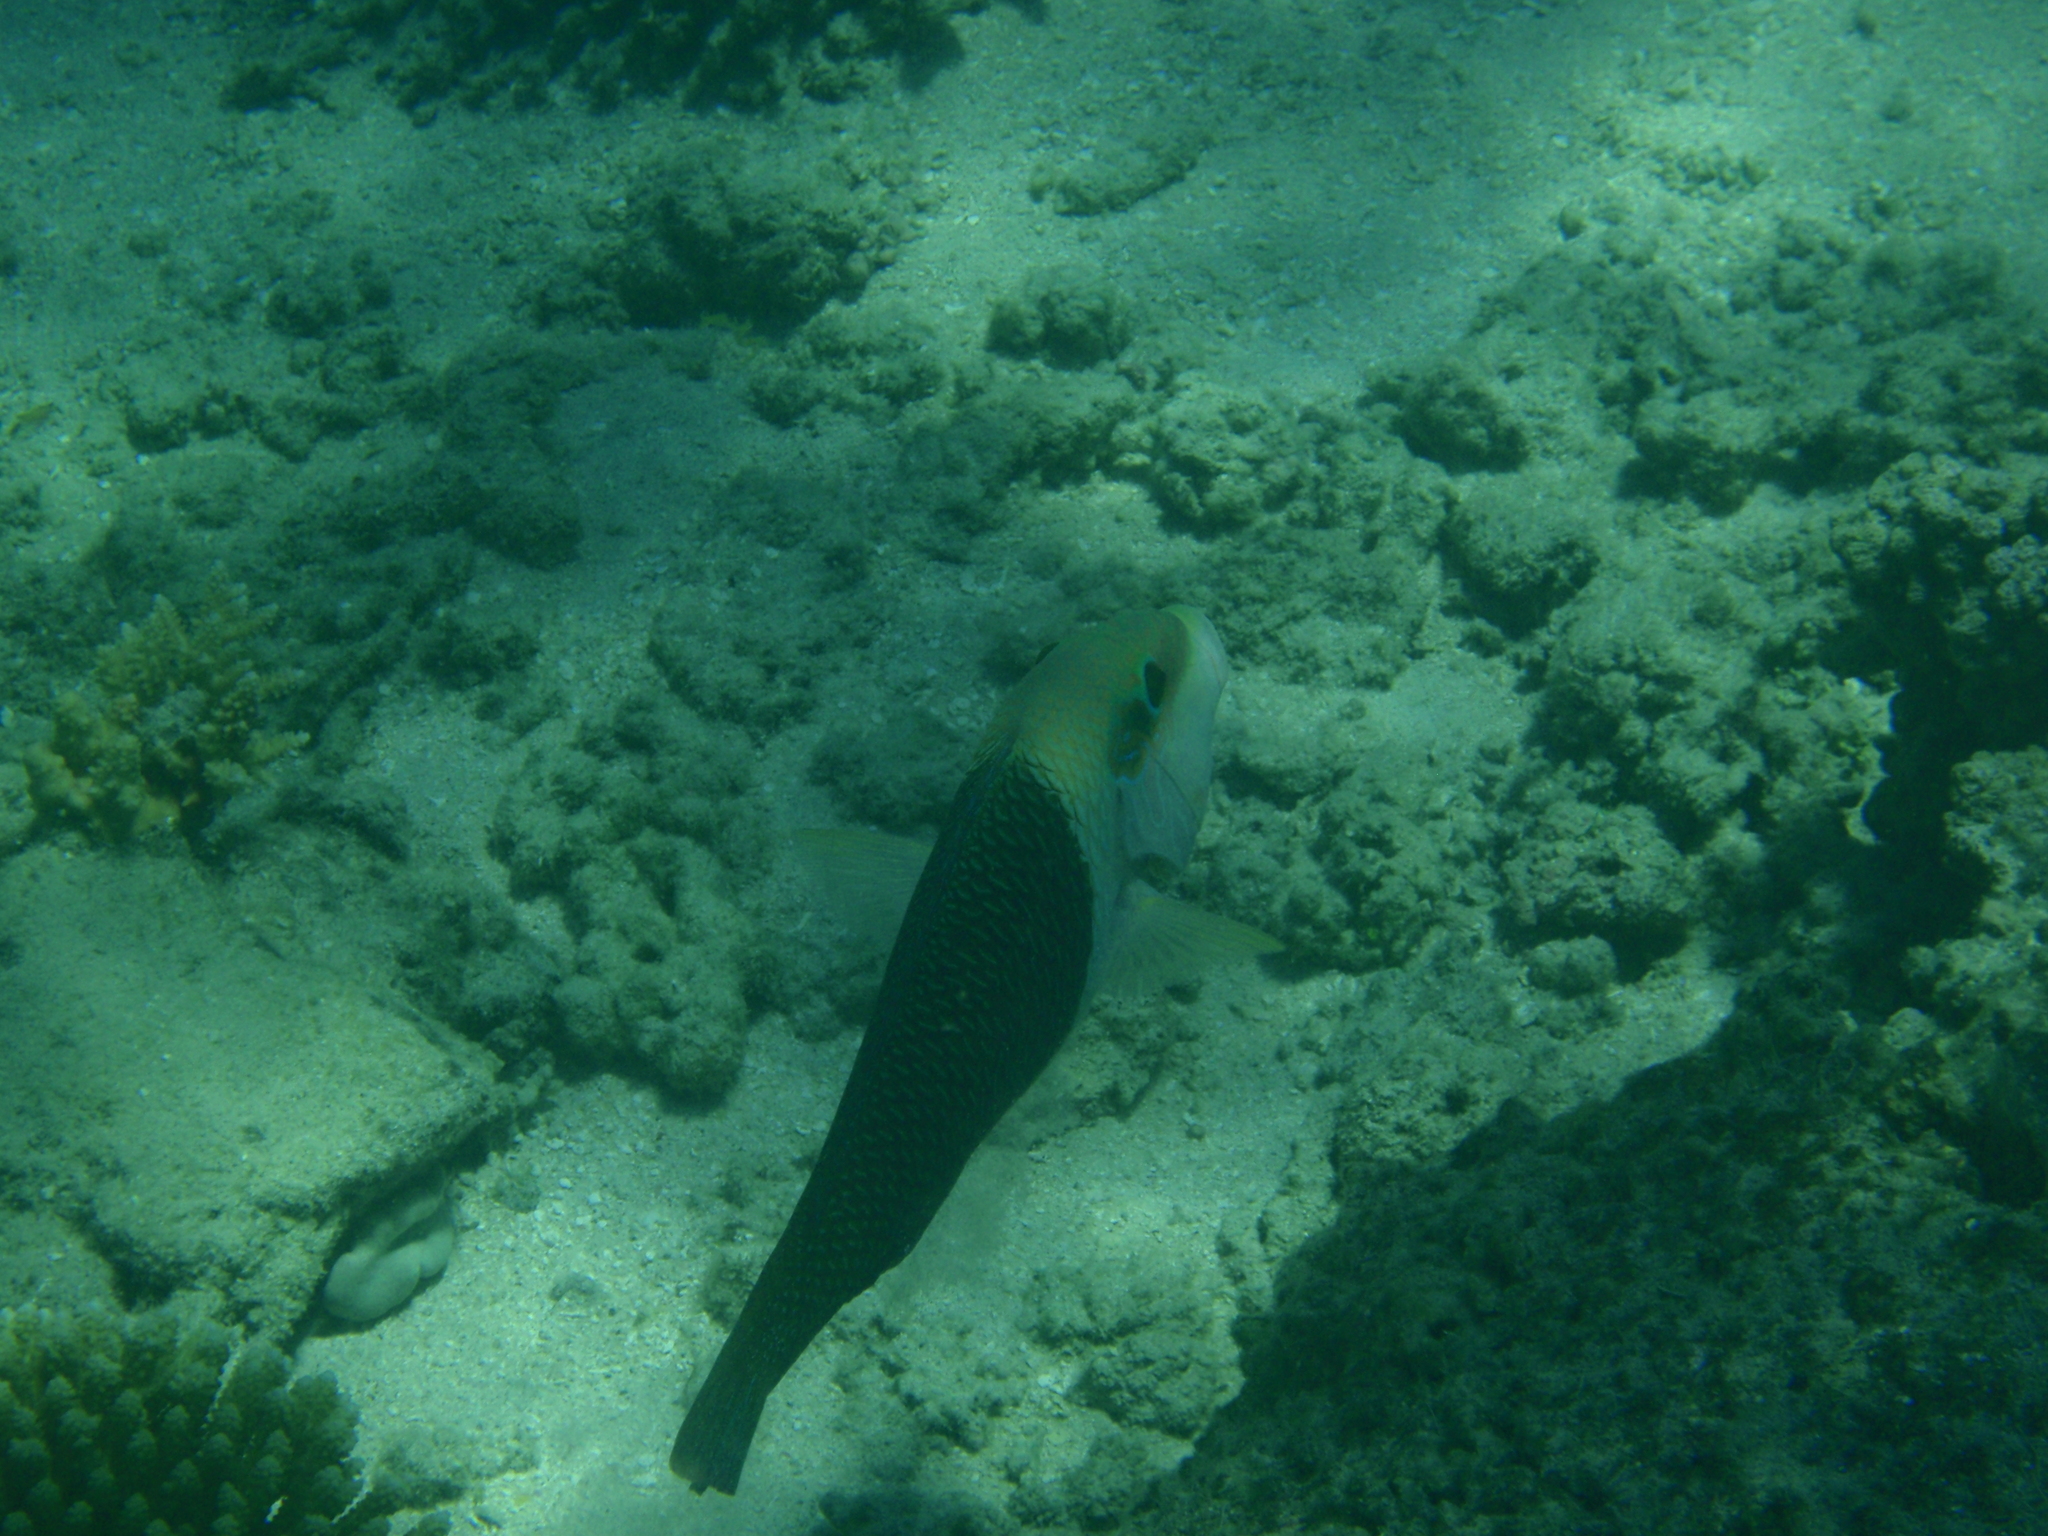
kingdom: Animalia
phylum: Chordata
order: Perciformes
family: Labridae
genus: Hemigymnus
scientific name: Hemigymnus melapterus
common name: Blackeye thicklip
